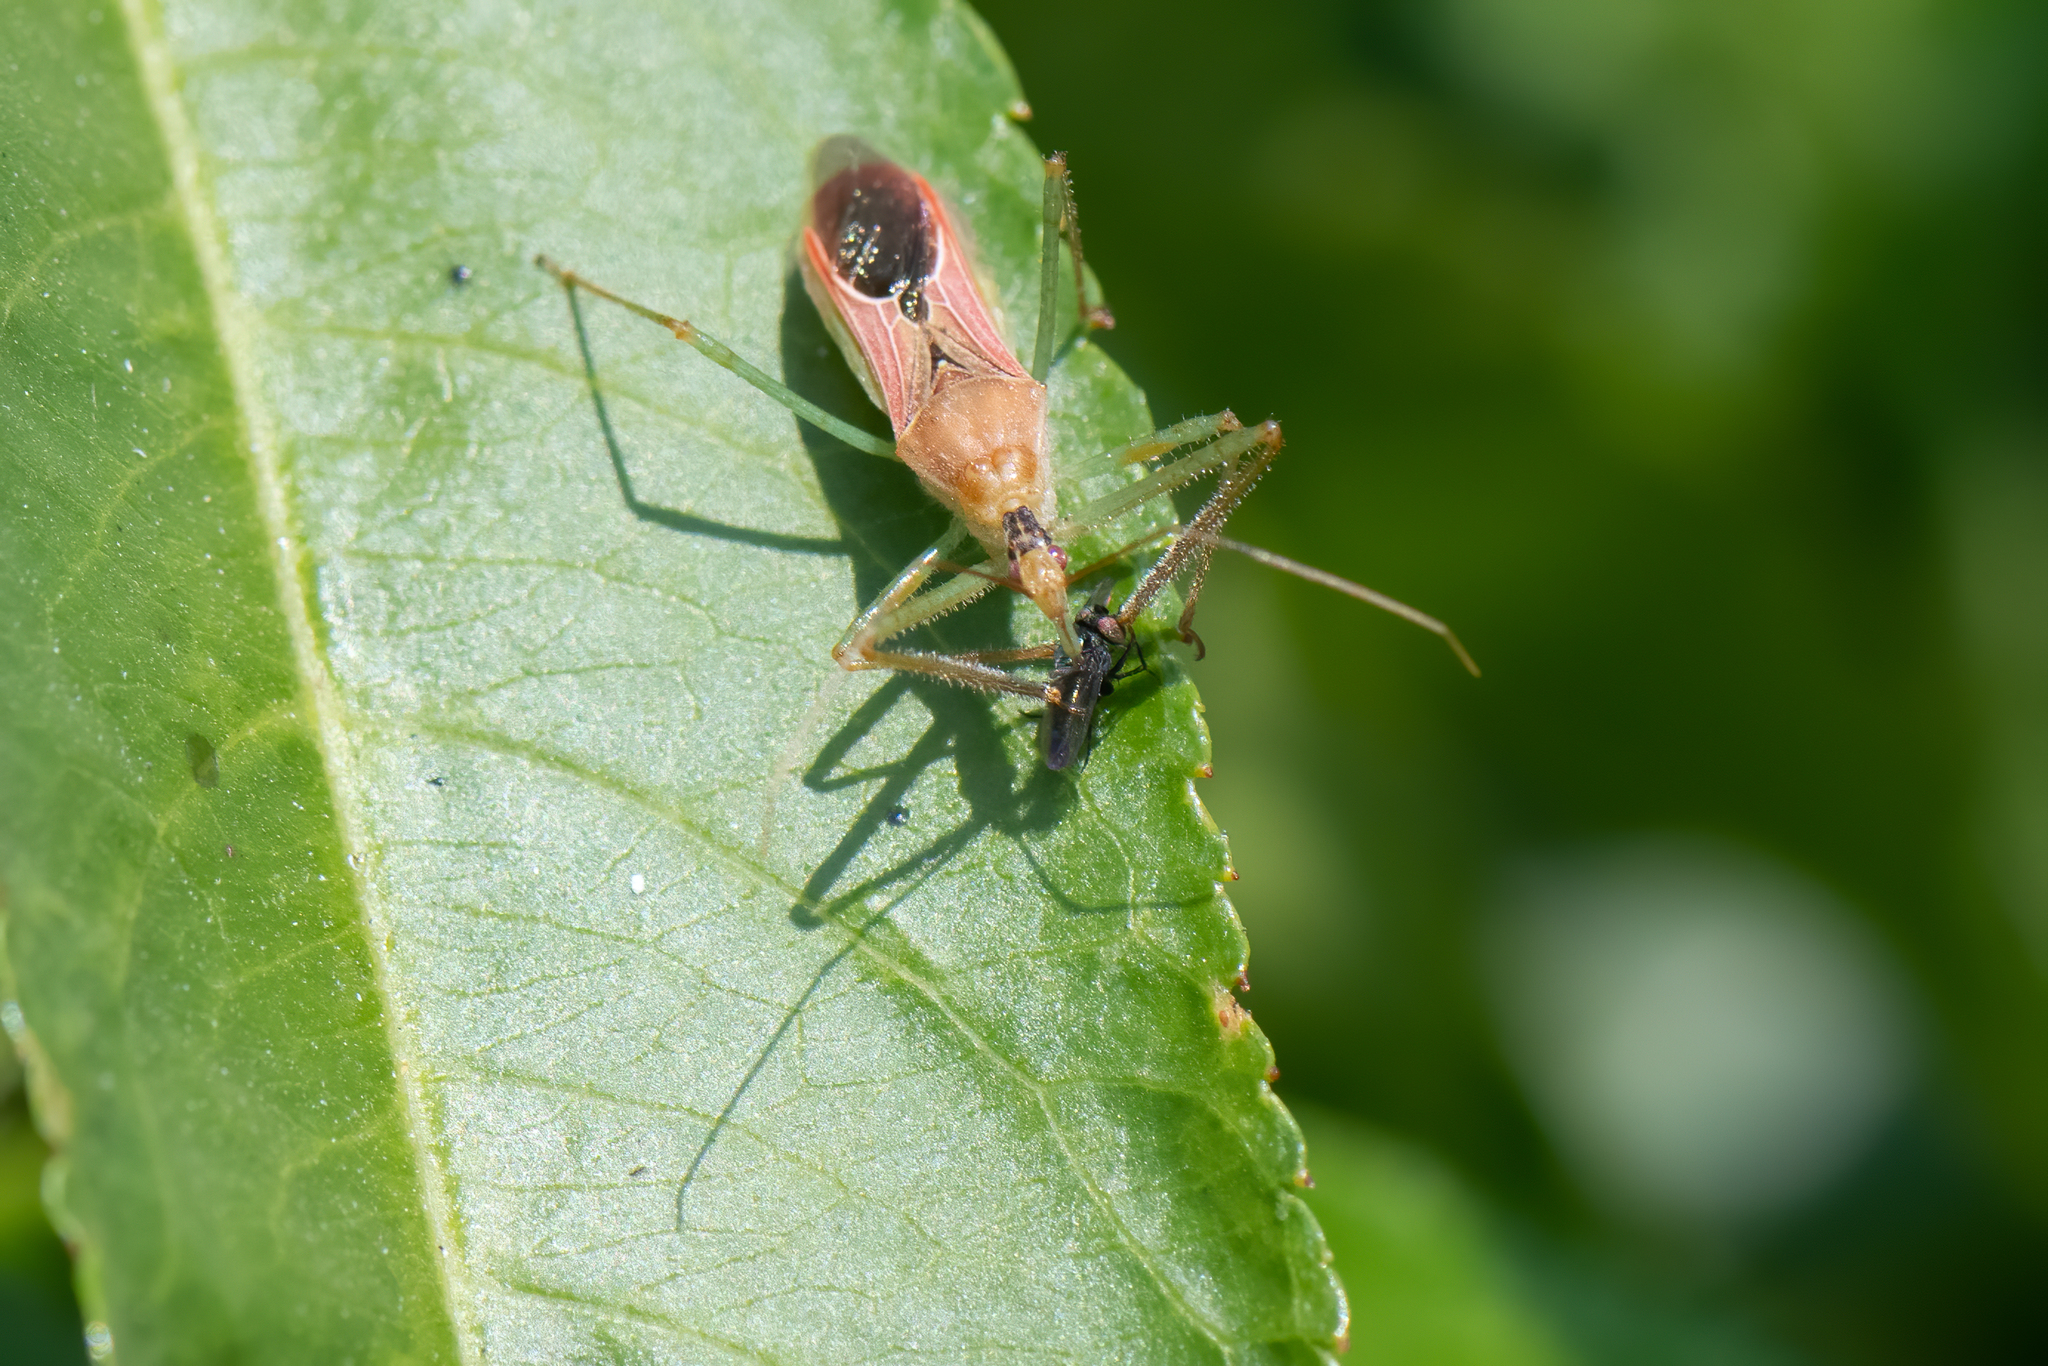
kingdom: Animalia
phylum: Arthropoda
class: Insecta
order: Hemiptera
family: Reduviidae
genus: Zelus
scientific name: Zelus renardii
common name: Assassin bug
